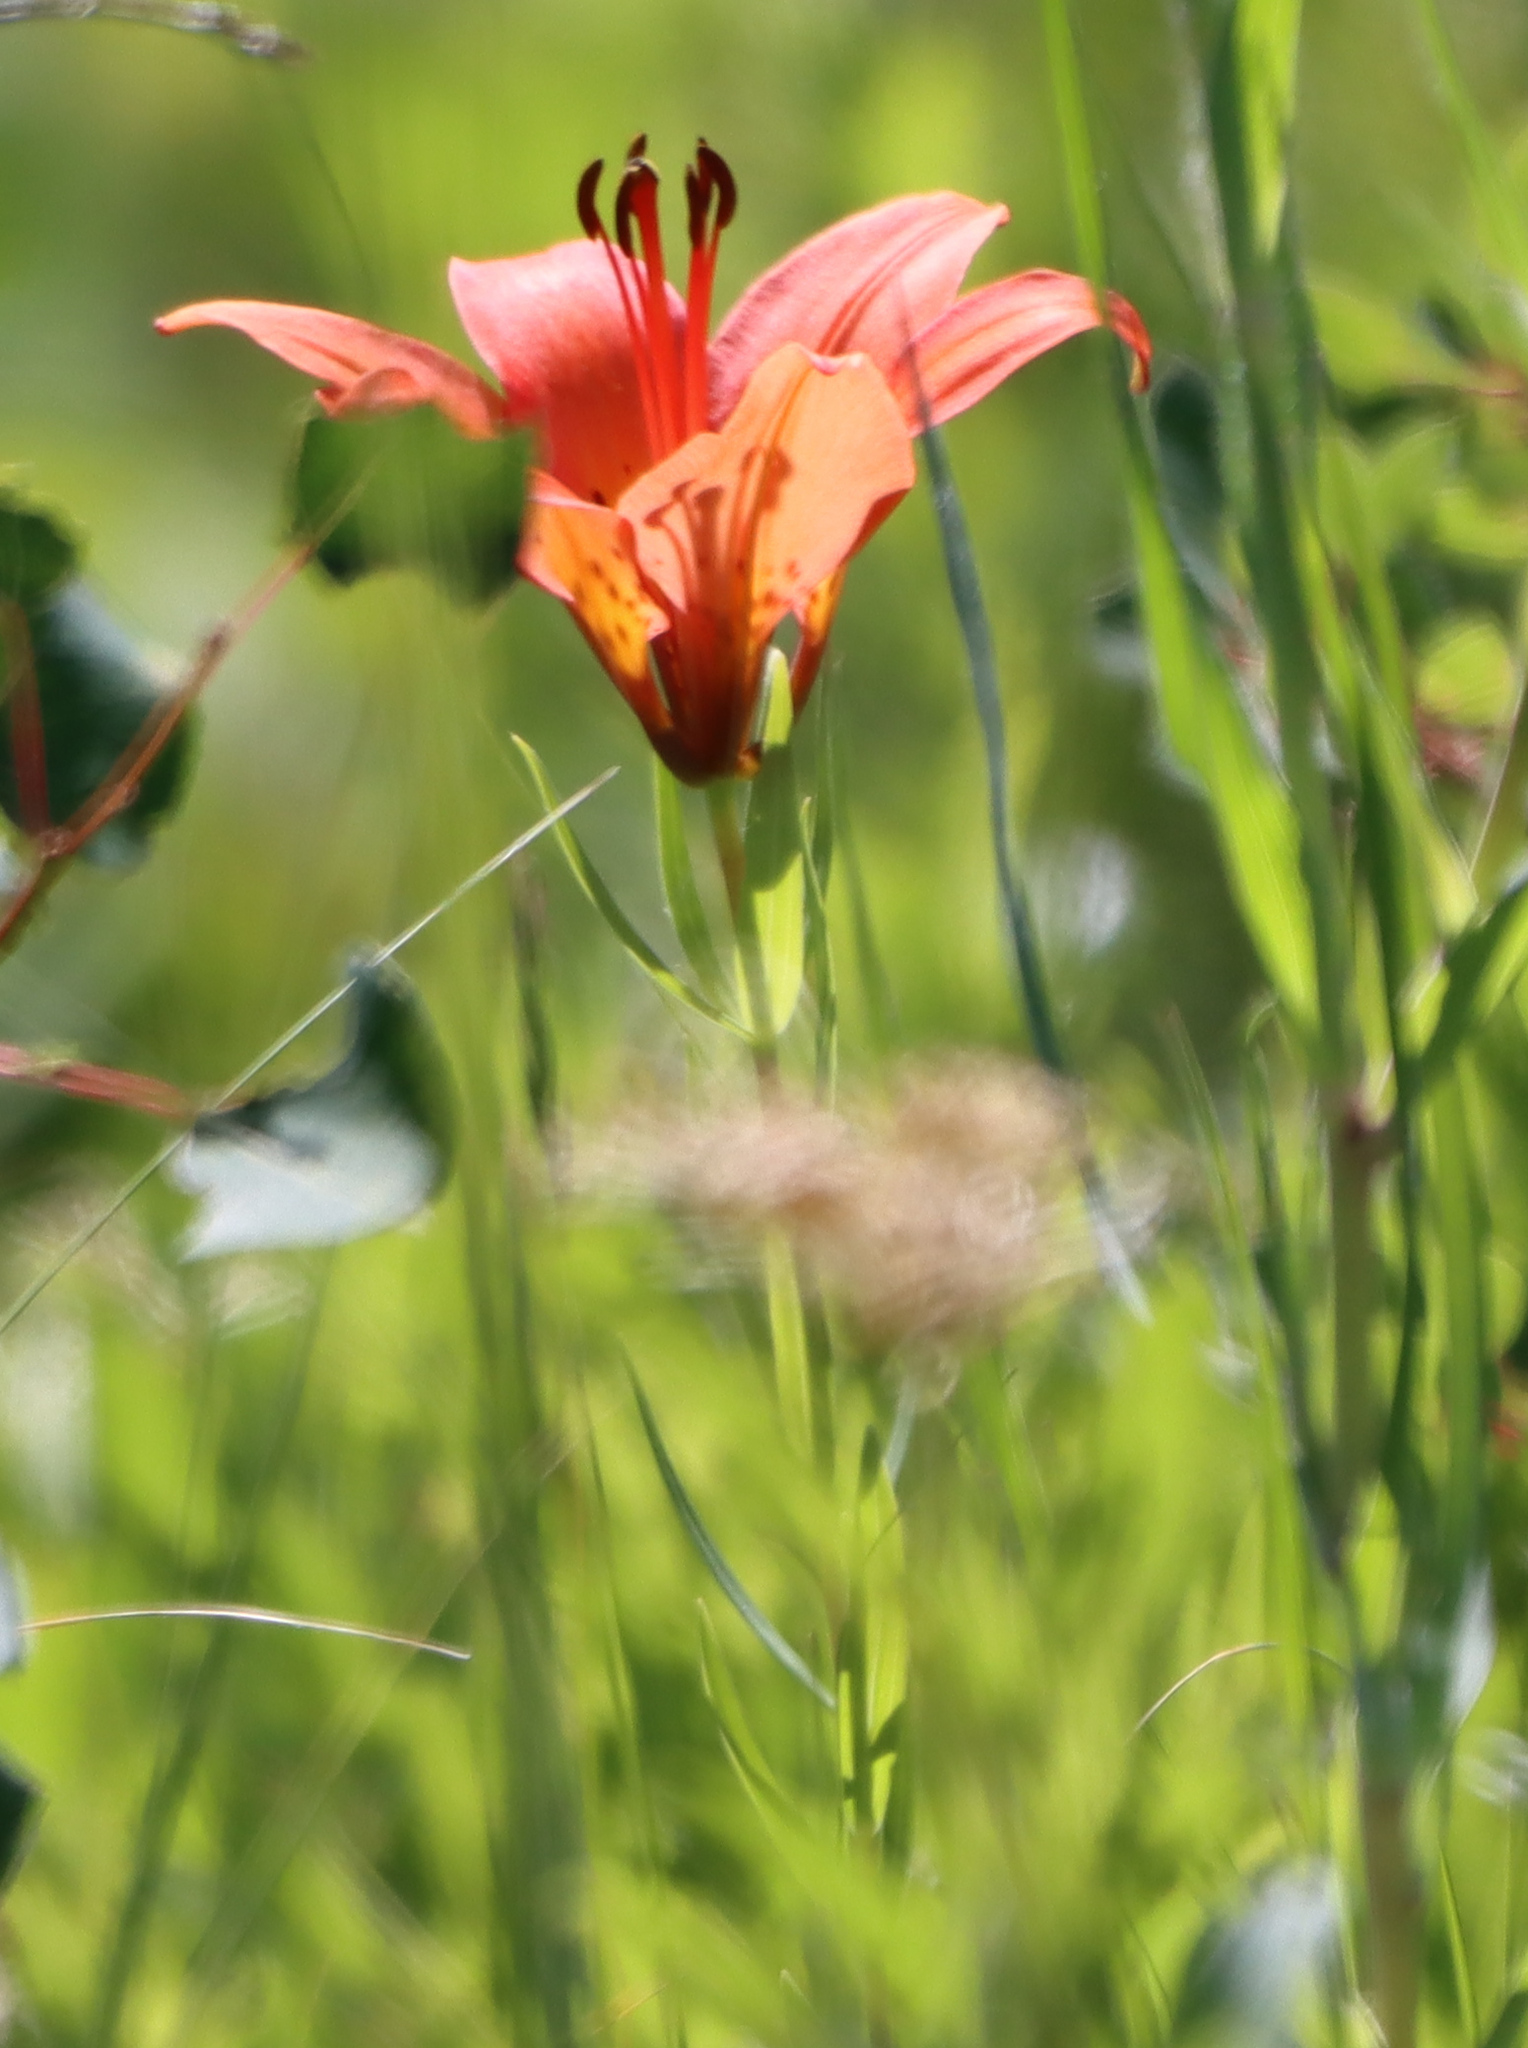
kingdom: Plantae
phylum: Tracheophyta
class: Liliopsida
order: Liliales
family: Liliaceae
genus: Lilium
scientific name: Lilium philadelphicum
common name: Red lily
